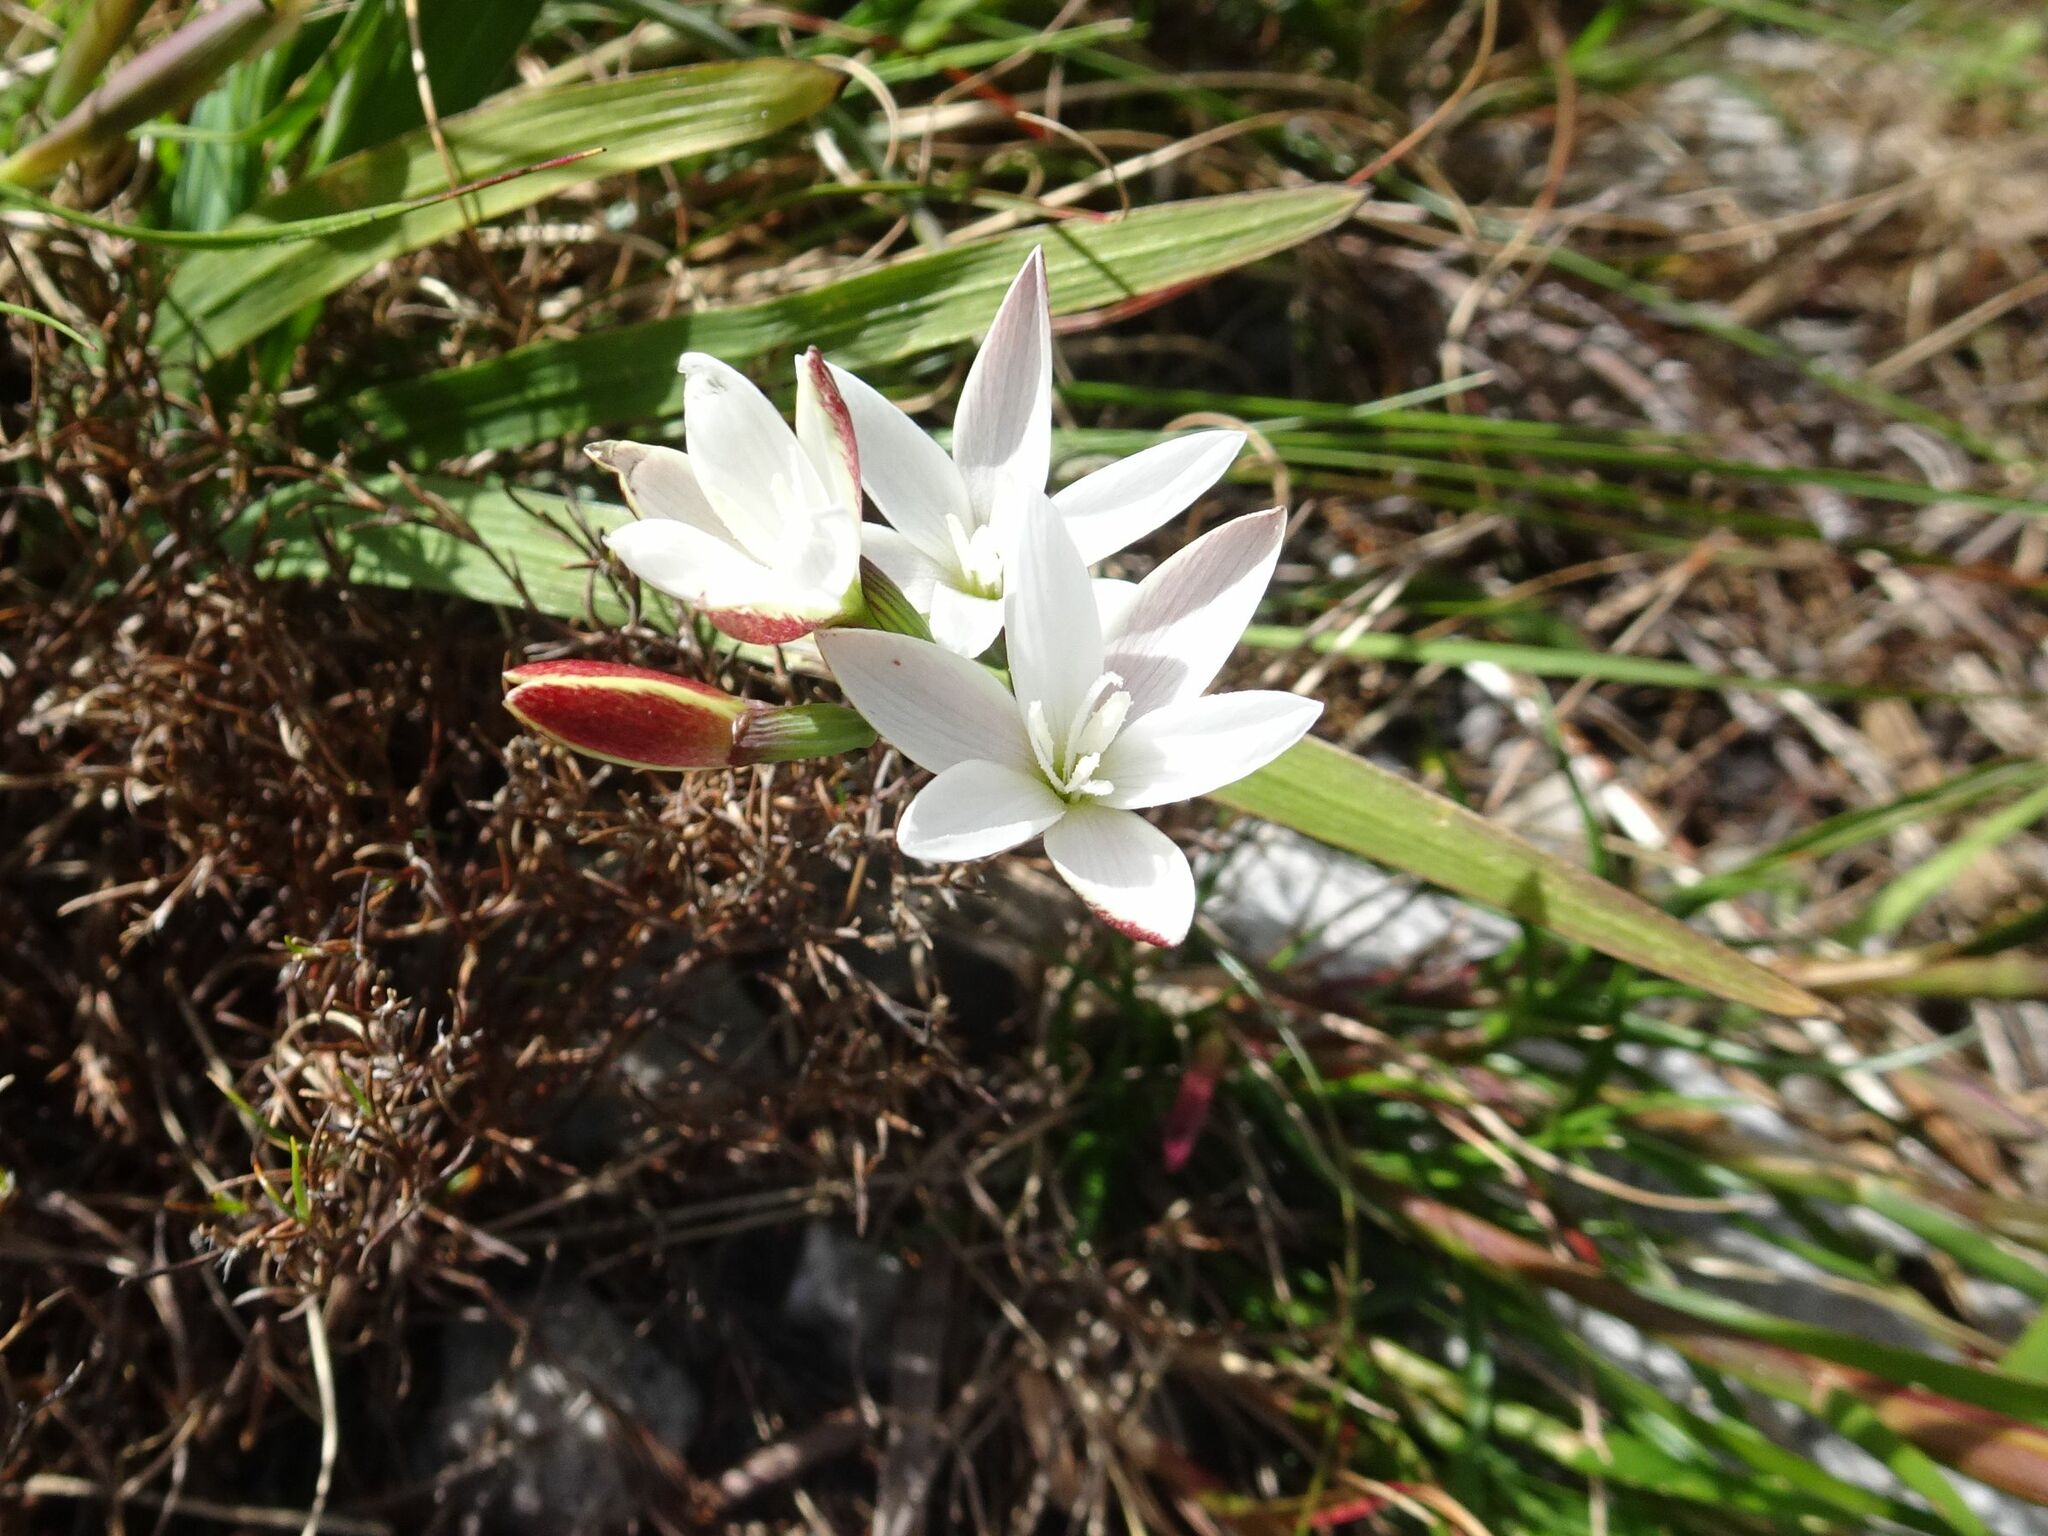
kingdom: Plantae
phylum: Tracheophyta
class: Liliopsida
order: Asparagales
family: Iridaceae
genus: Hesperantha
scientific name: Hesperantha falcata
